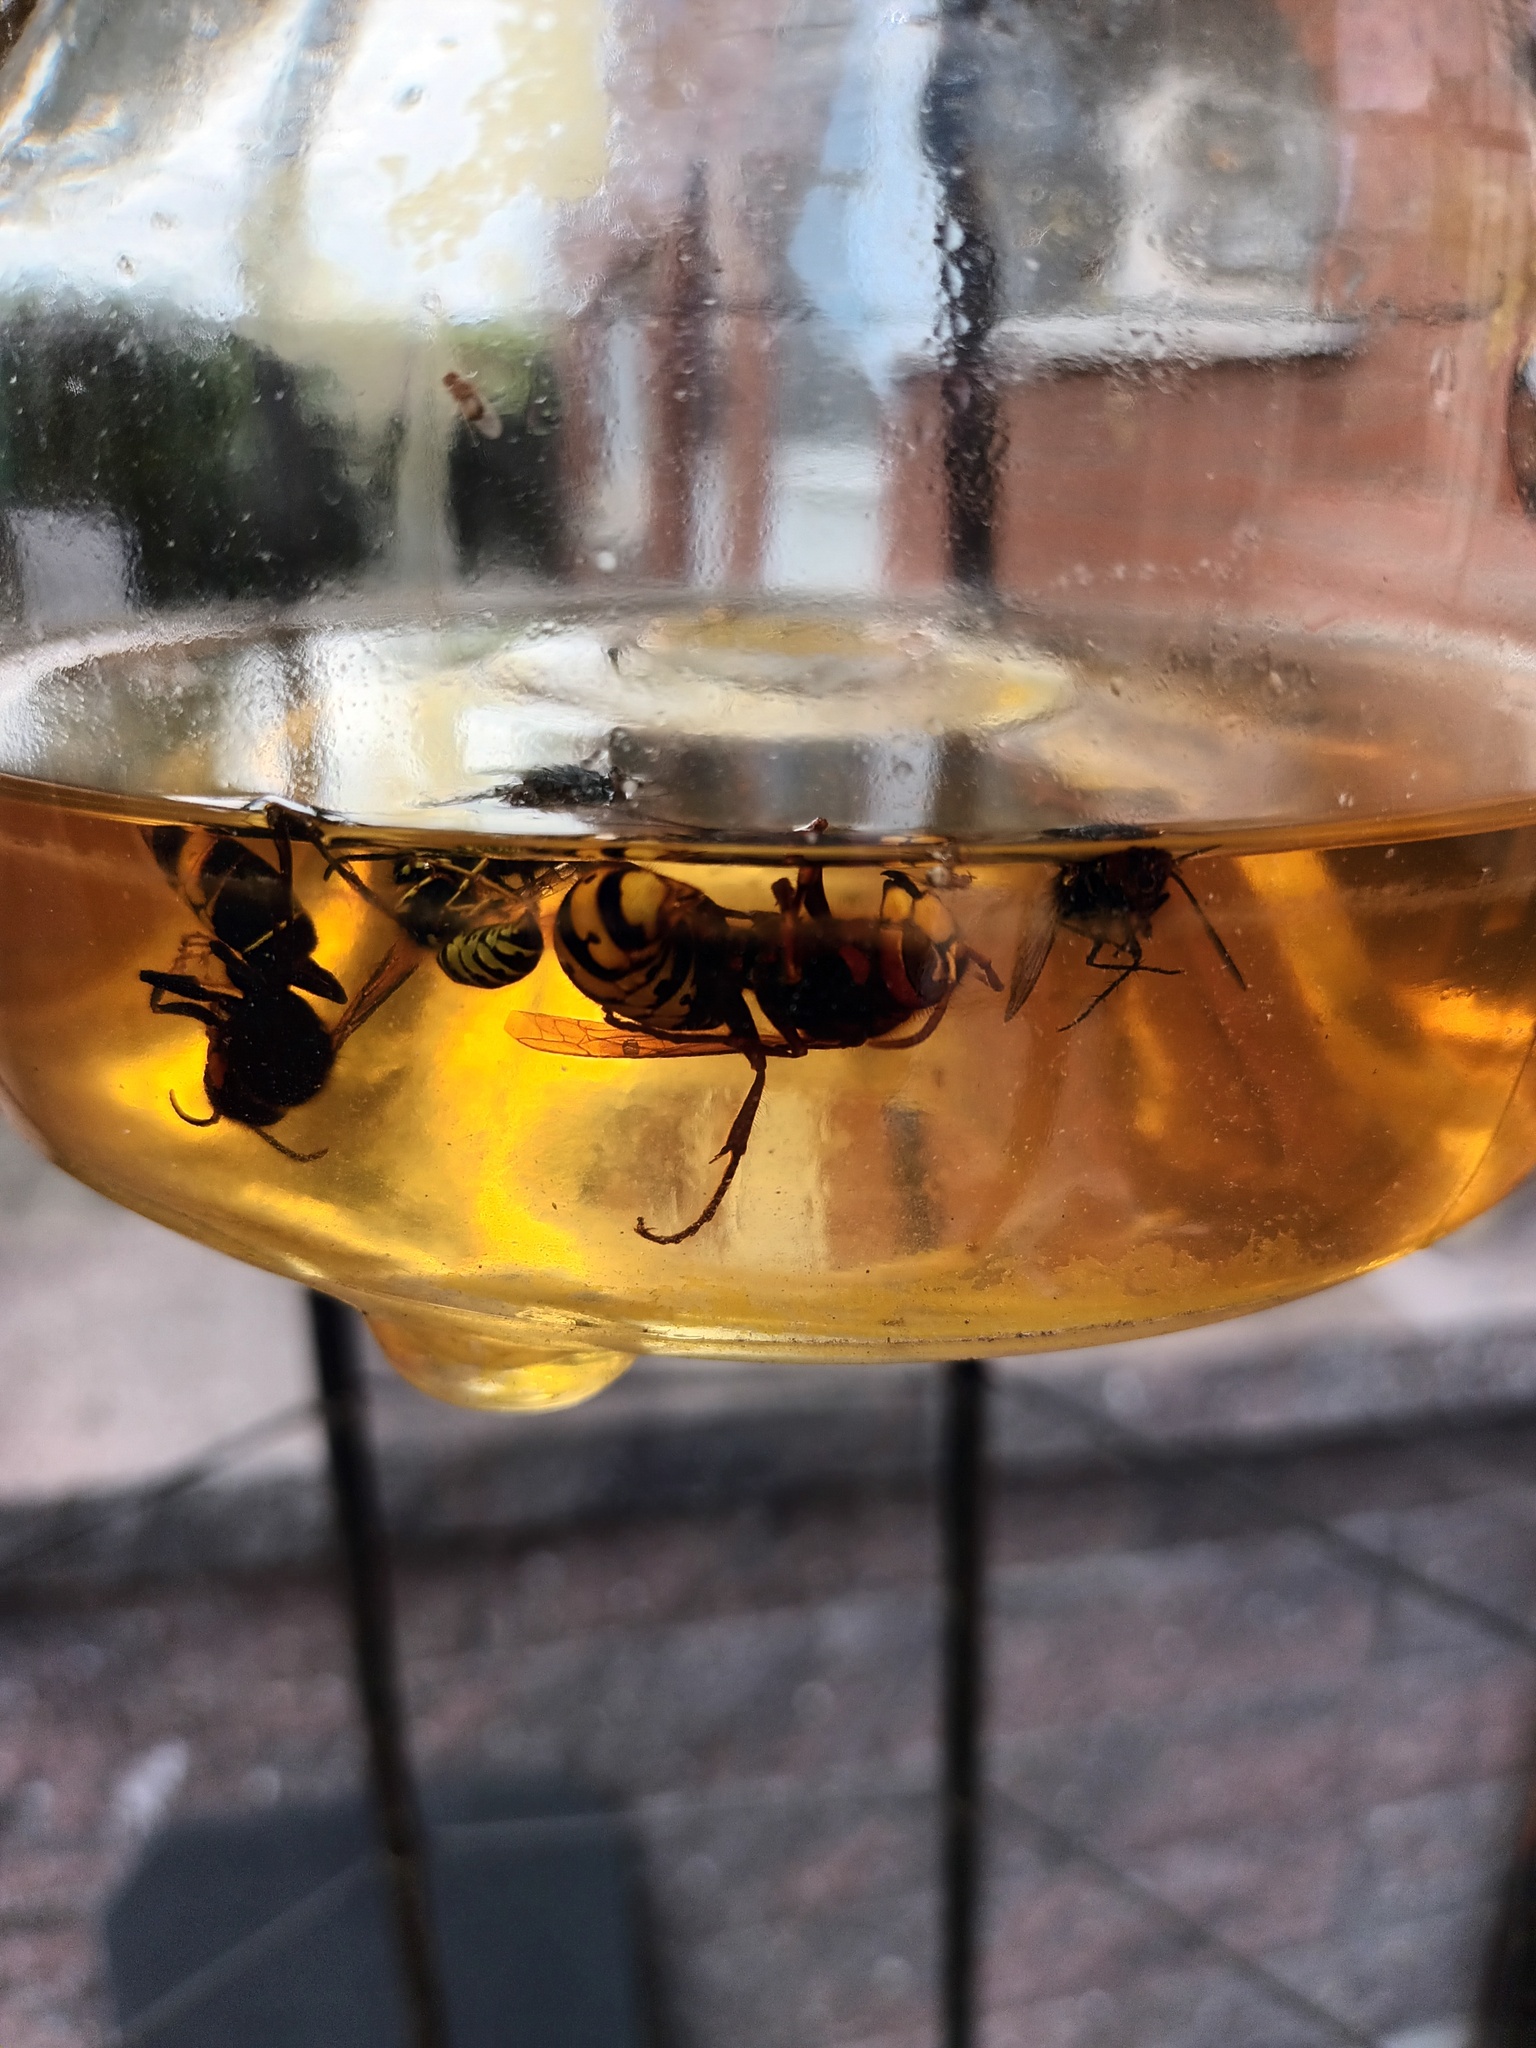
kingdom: Animalia
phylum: Arthropoda
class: Insecta
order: Hymenoptera
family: Vespidae
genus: Vespa
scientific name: Vespa velutina
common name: Asian hornet
